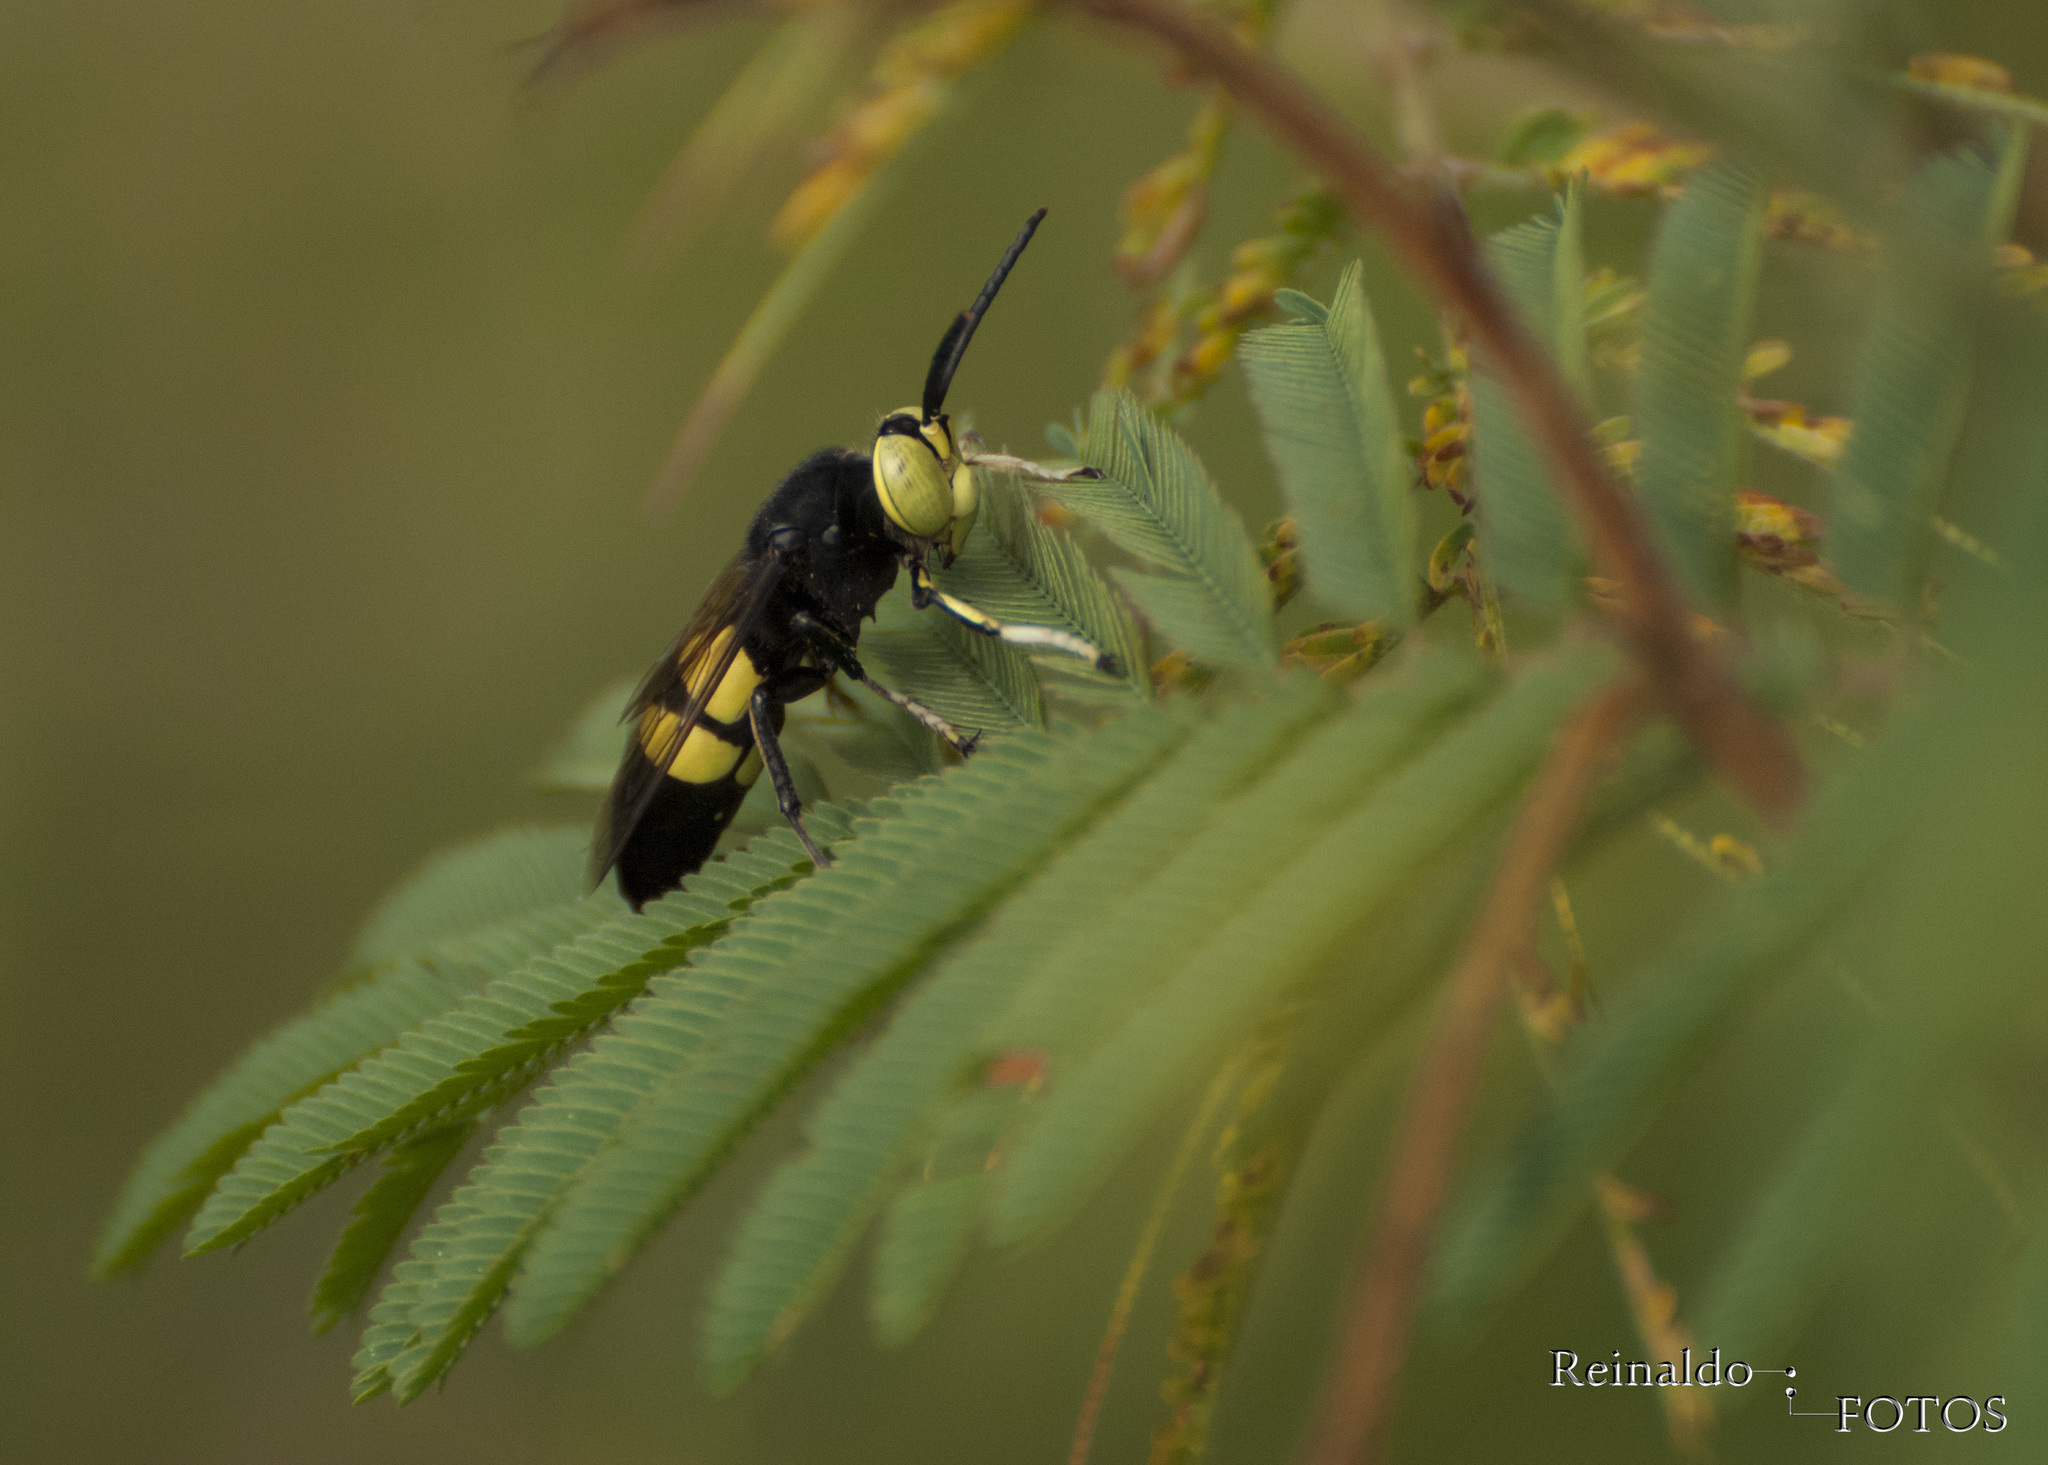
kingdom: Animalia
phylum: Arthropoda
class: Insecta
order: Hymenoptera
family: Crabronidae
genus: Editha
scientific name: Editha magnifica
